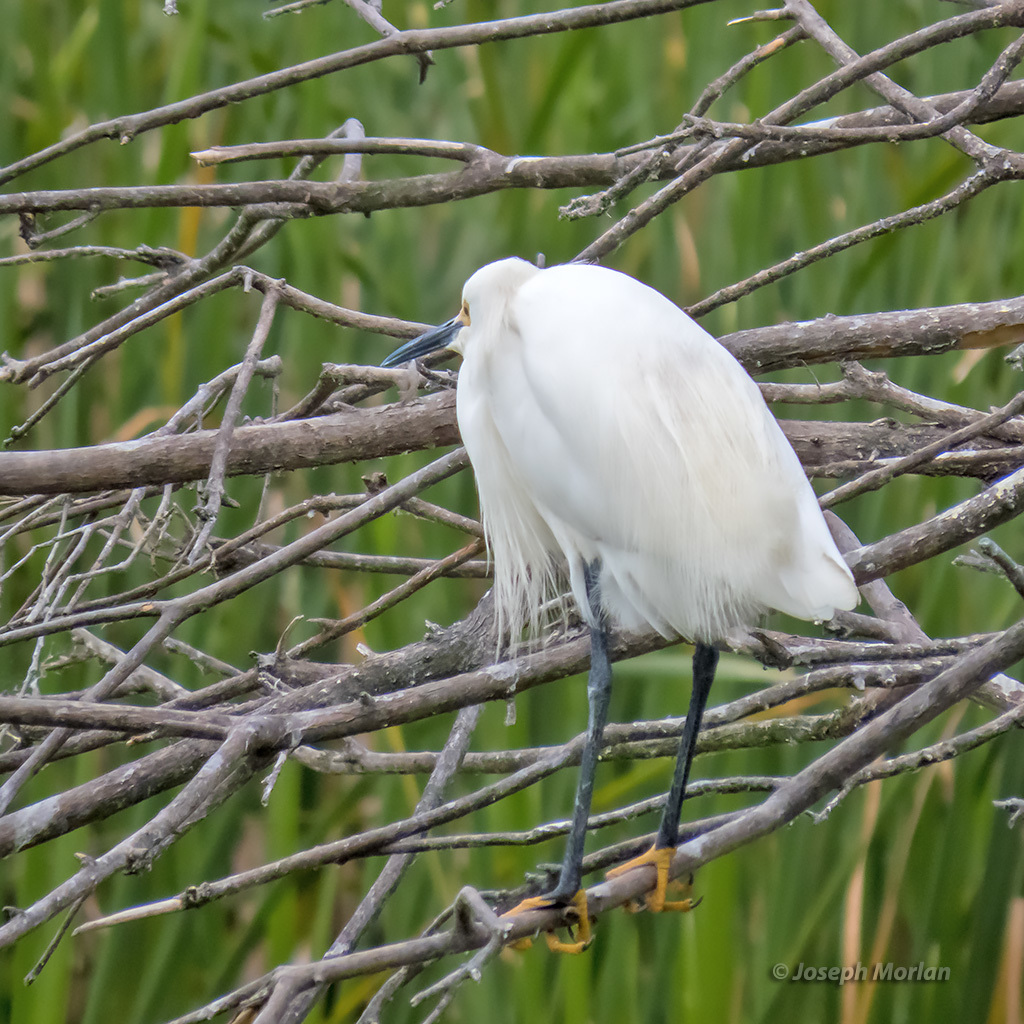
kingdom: Animalia
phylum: Chordata
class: Aves
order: Pelecaniformes
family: Ardeidae
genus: Egretta
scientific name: Egretta thula
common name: Snowy egret
